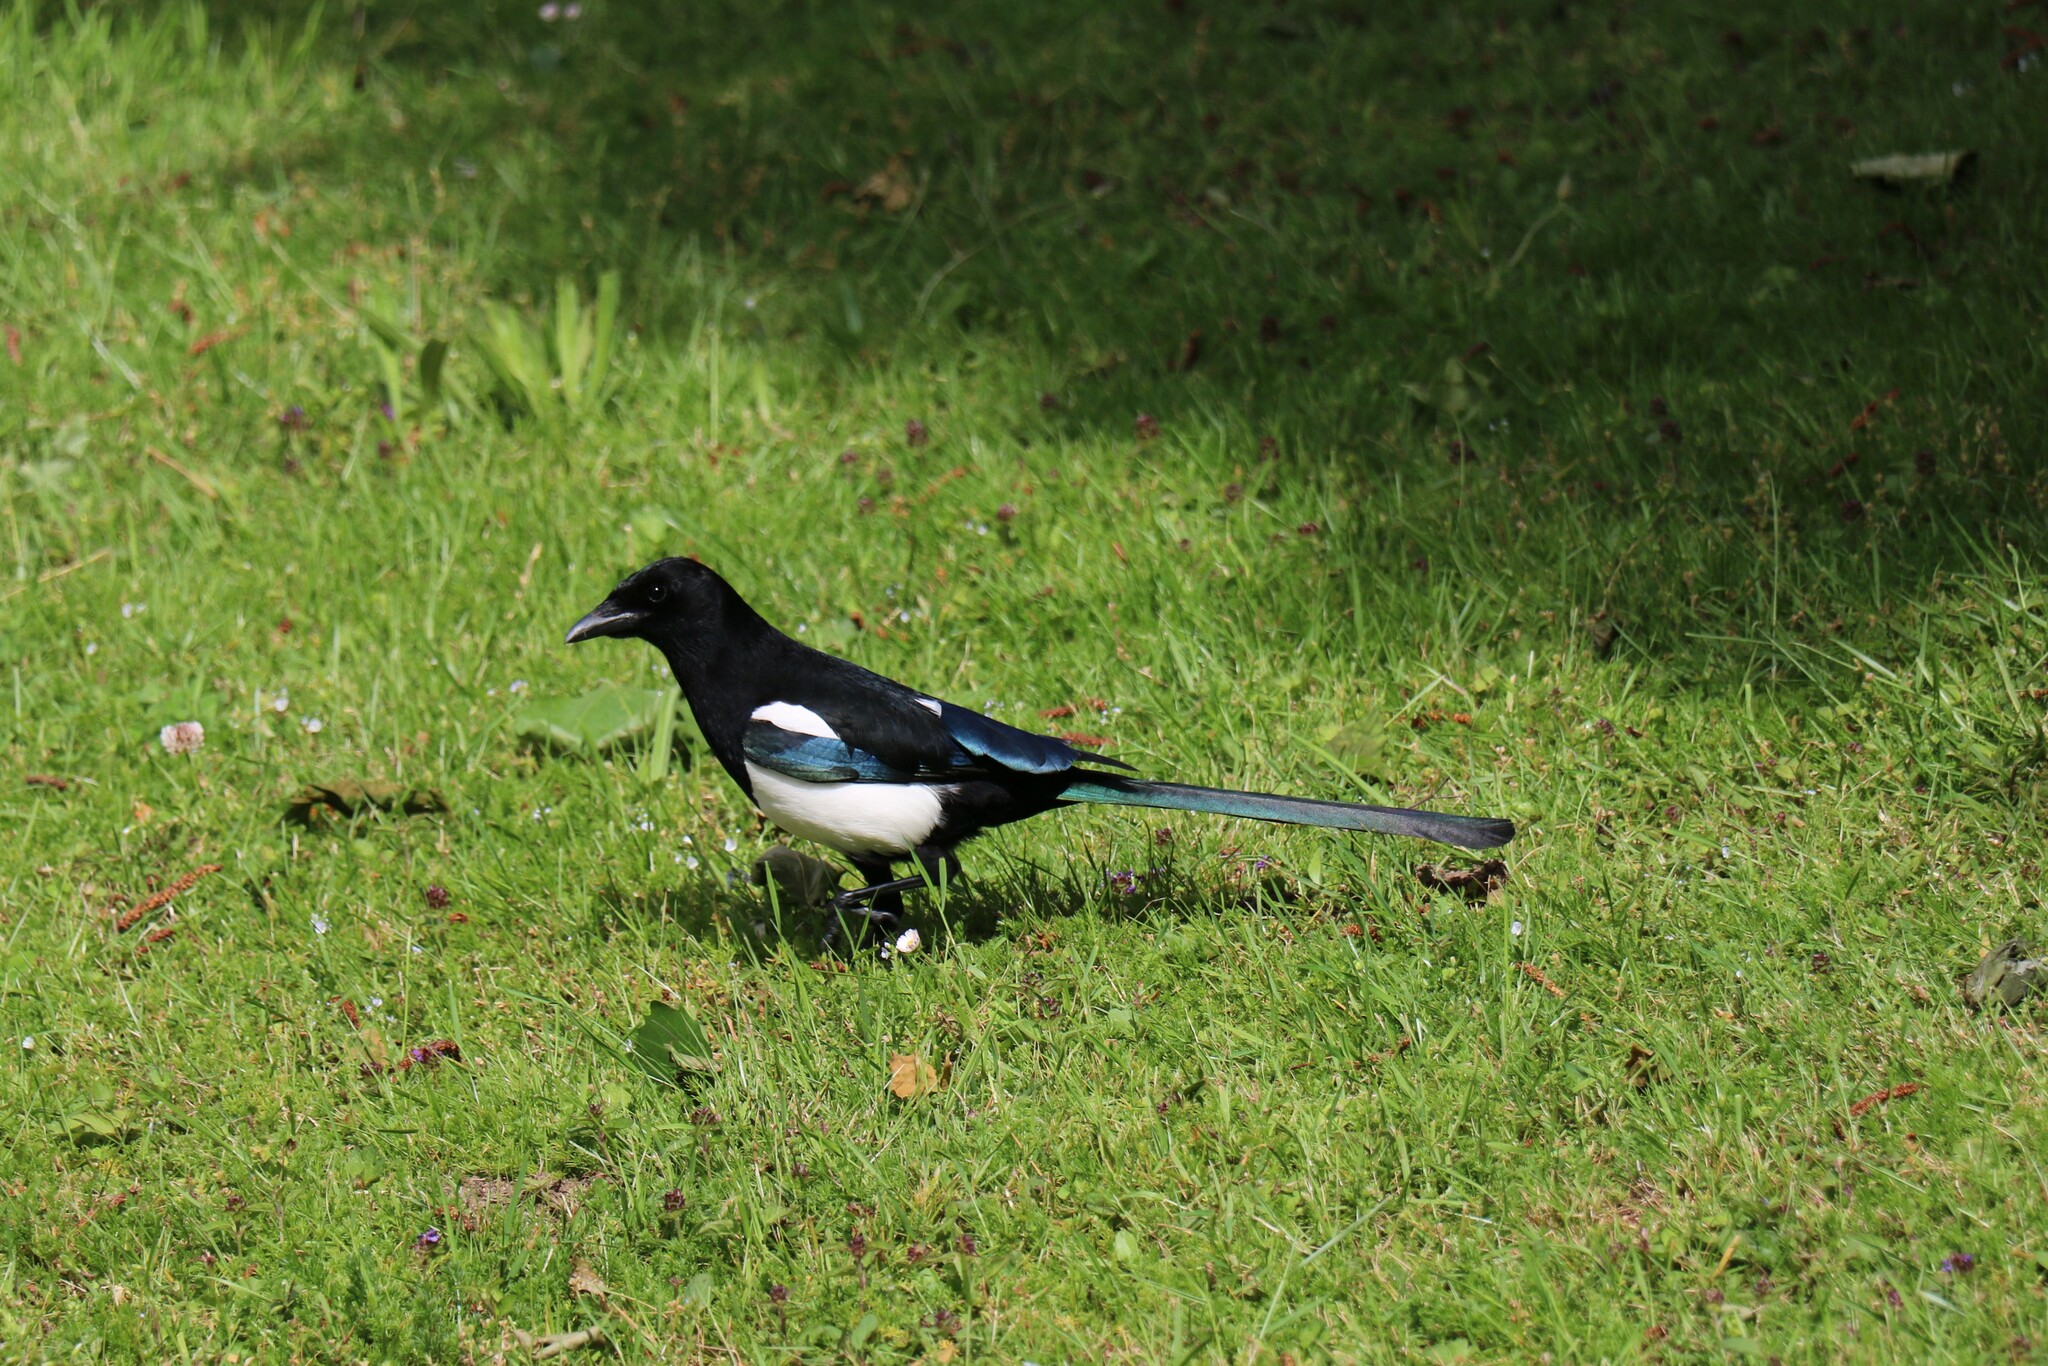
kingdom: Animalia
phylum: Chordata
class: Aves
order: Passeriformes
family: Corvidae
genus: Pica
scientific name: Pica pica
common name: Eurasian magpie
